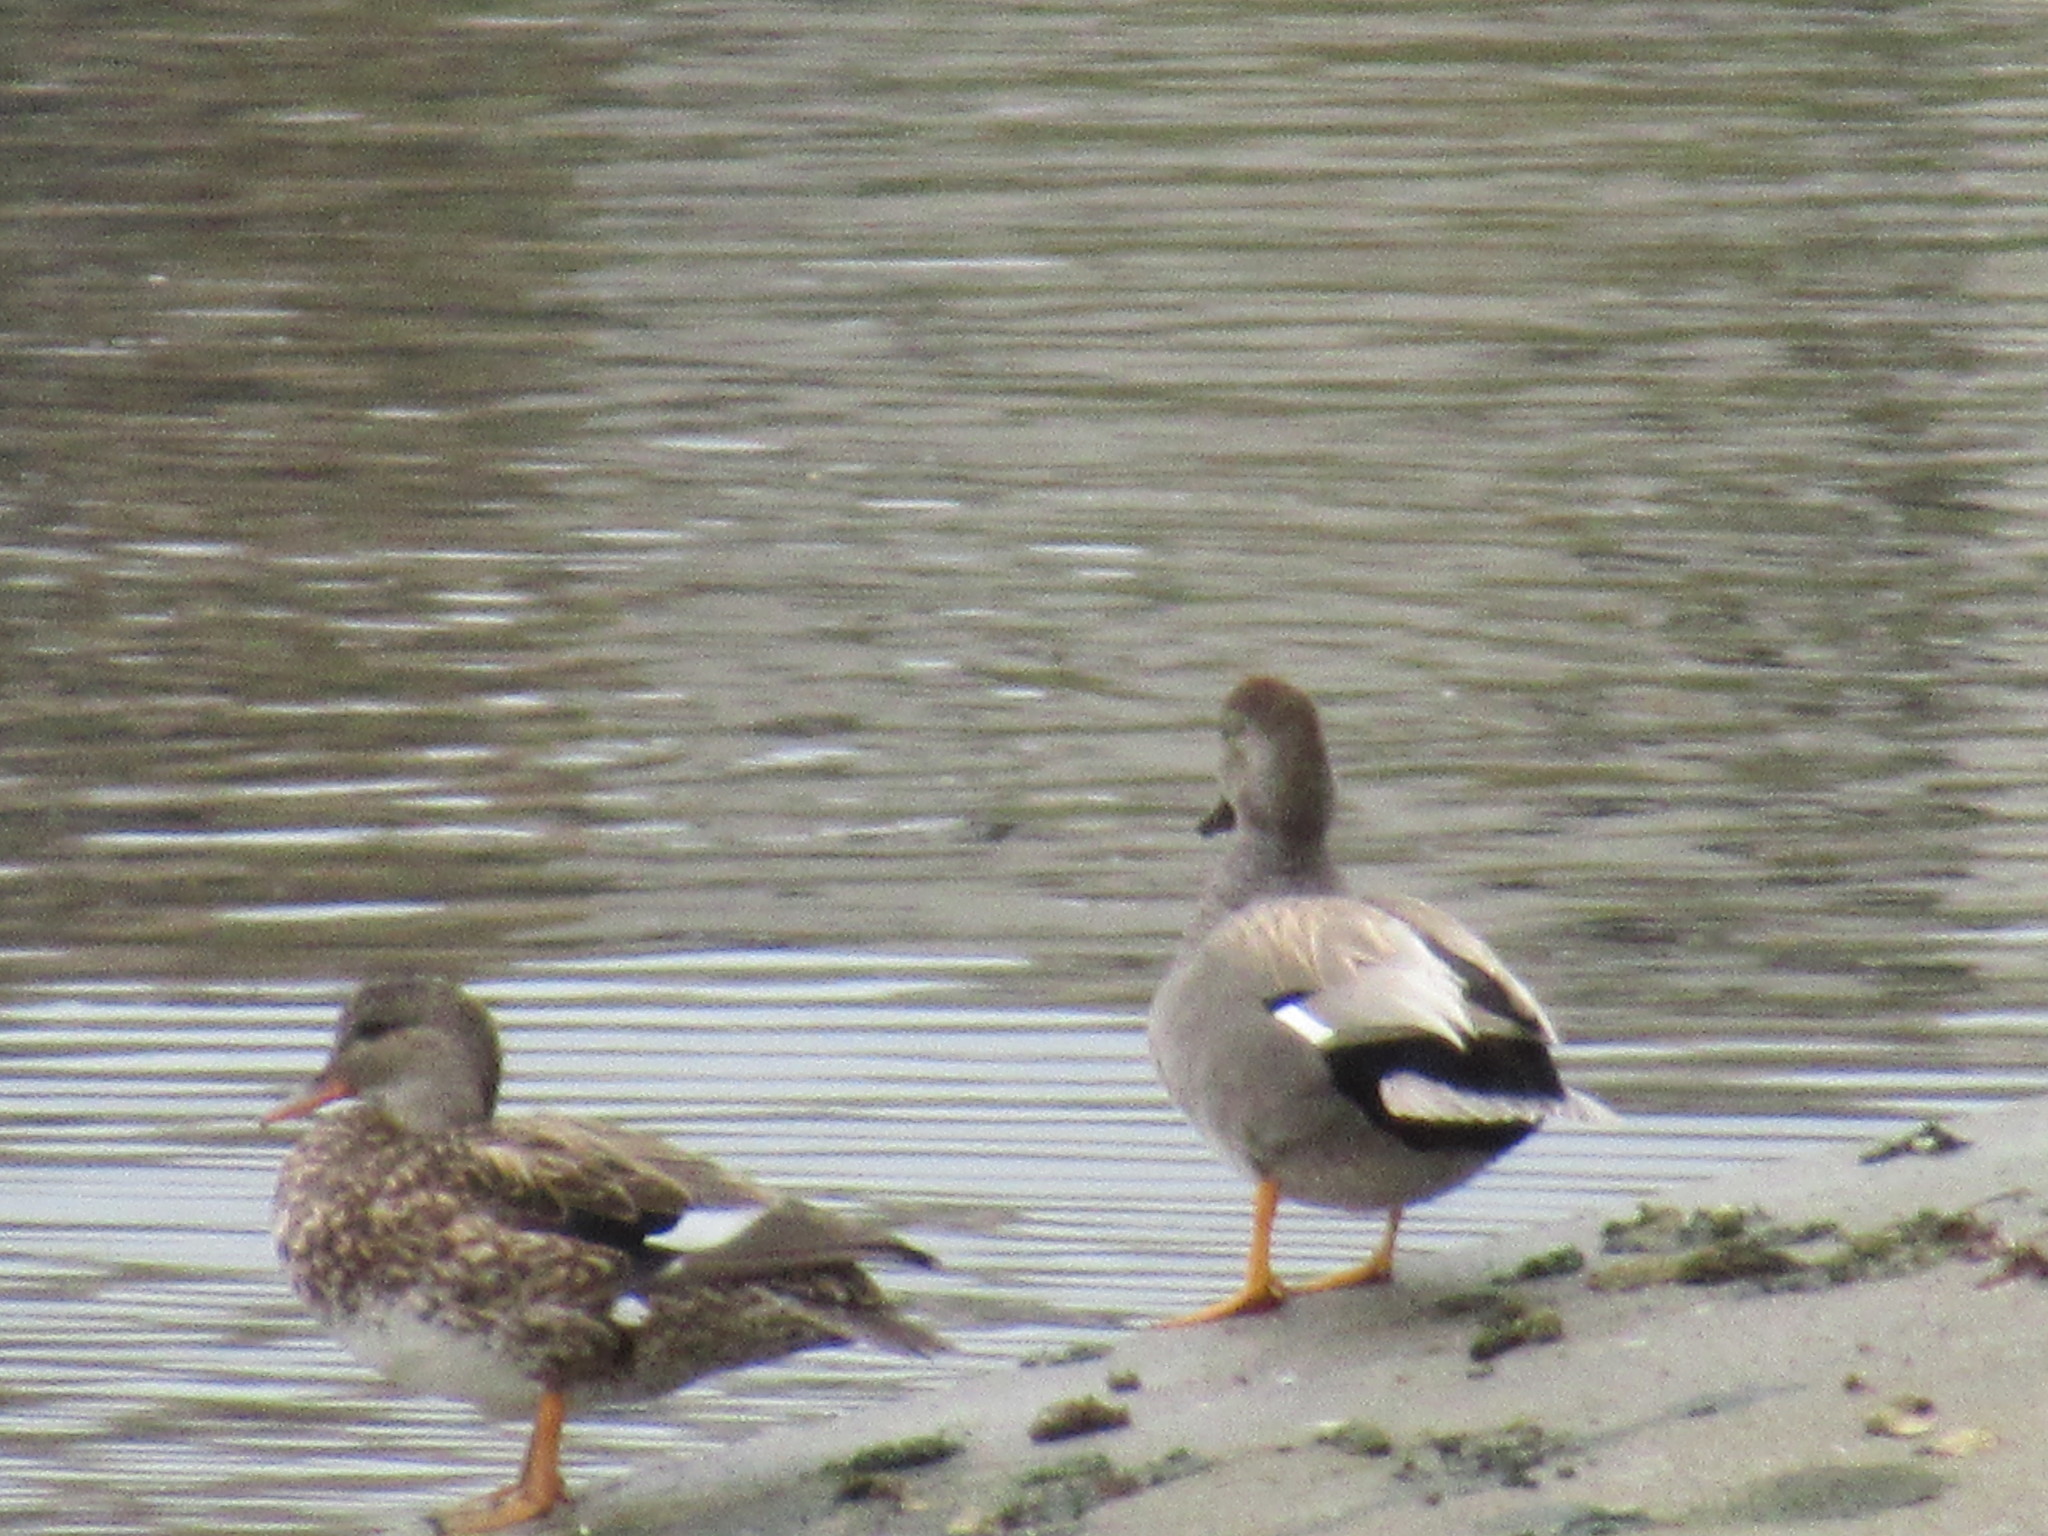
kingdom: Animalia
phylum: Chordata
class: Aves
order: Anseriformes
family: Anatidae
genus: Mareca
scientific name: Mareca strepera
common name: Gadwall
